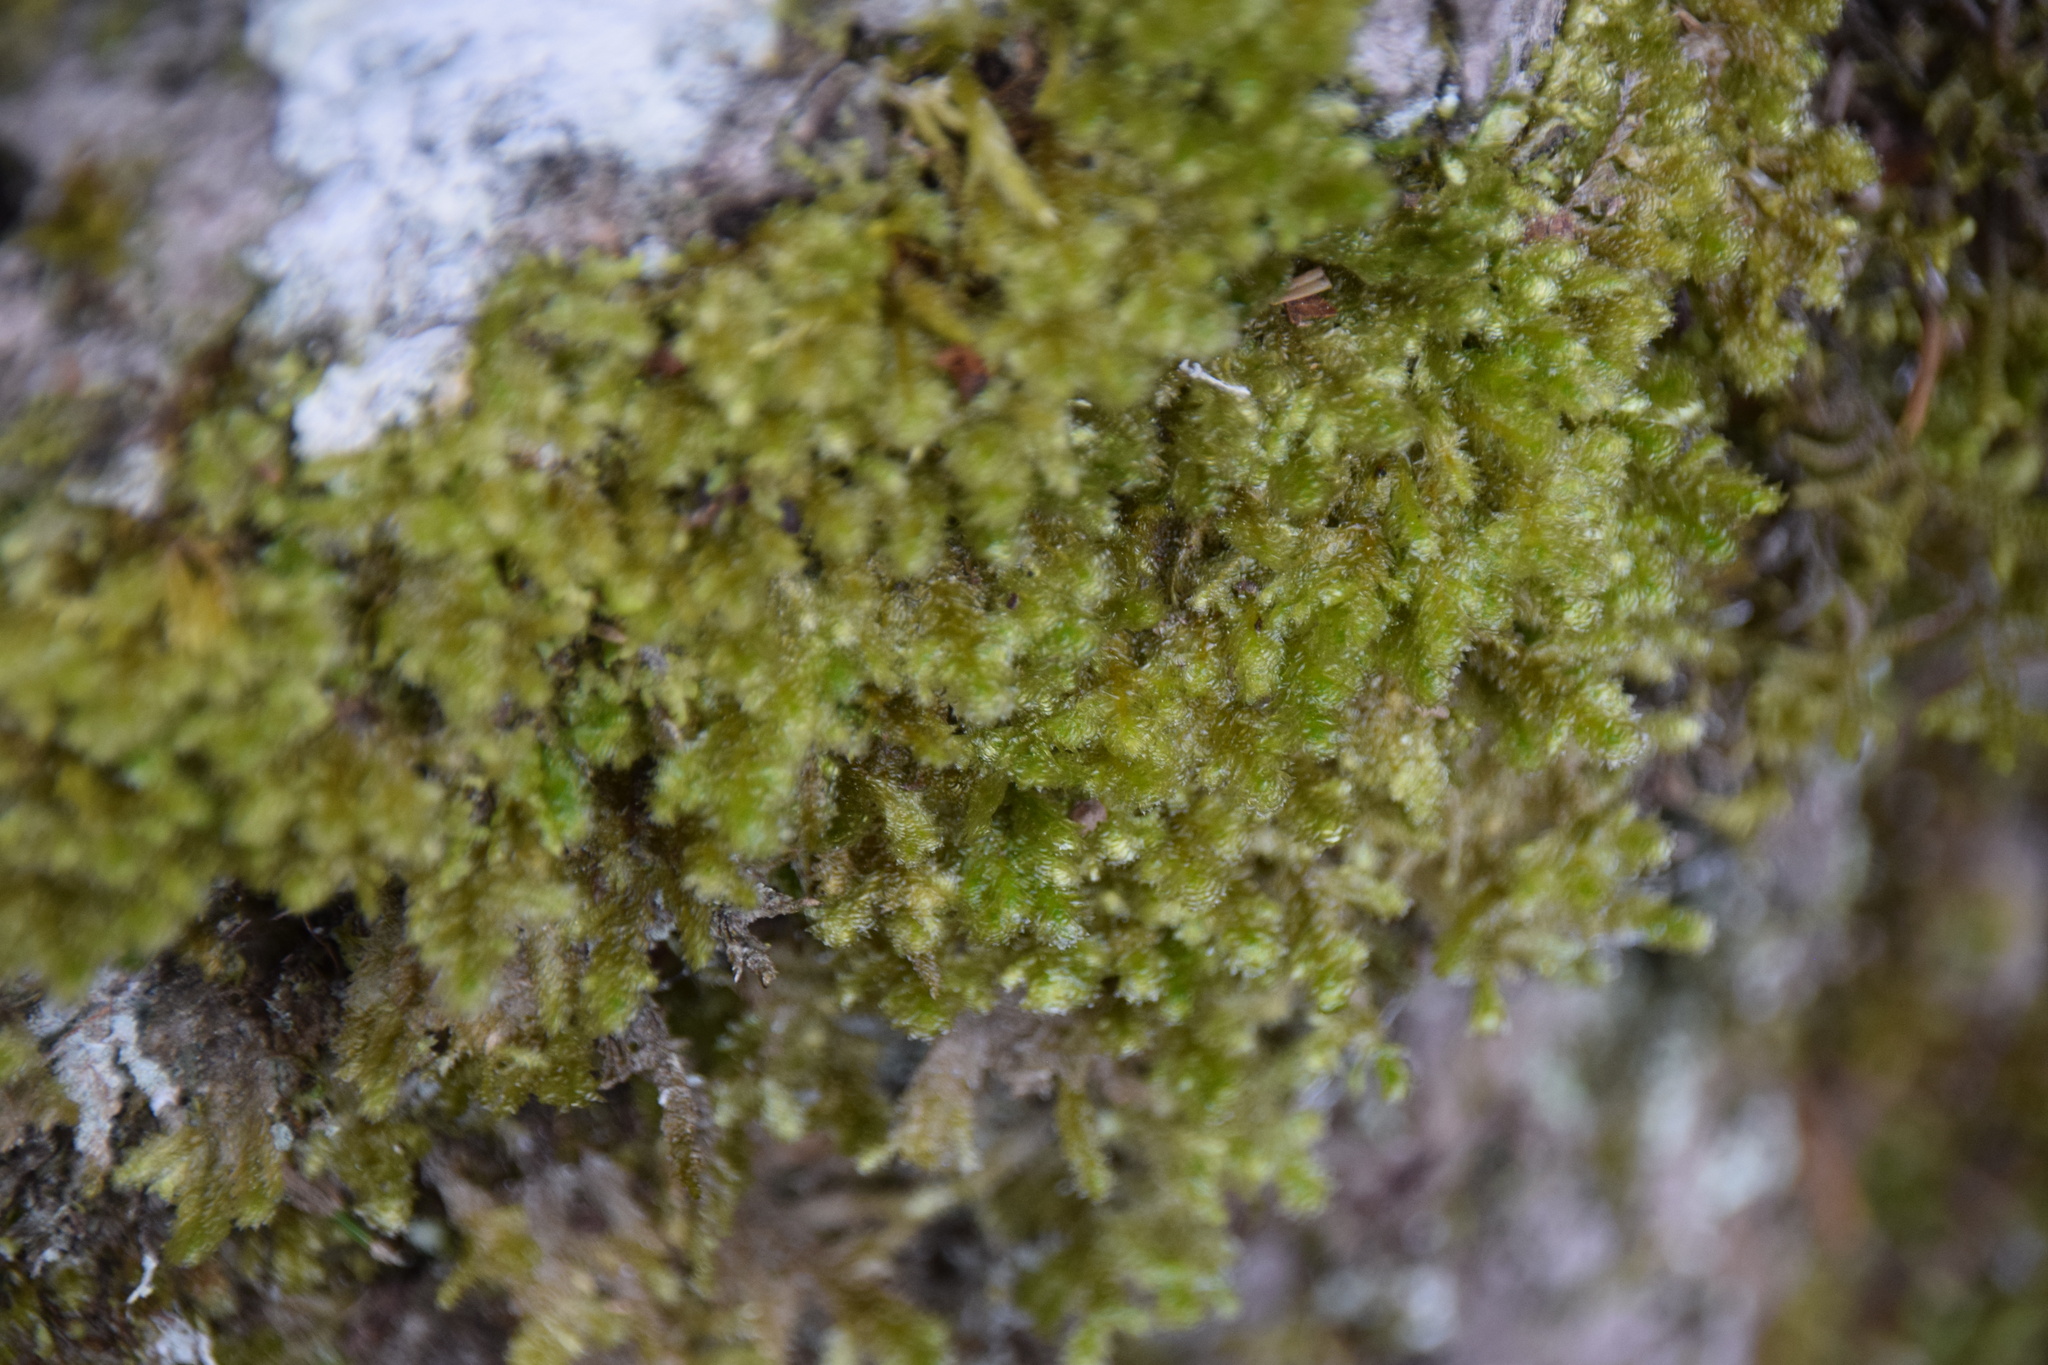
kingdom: Plantae
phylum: Bryophyta
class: Bryopsida
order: Hypnales
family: Neckeraceae
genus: Neckera
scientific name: Neckera pennata
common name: Feathery neckera
